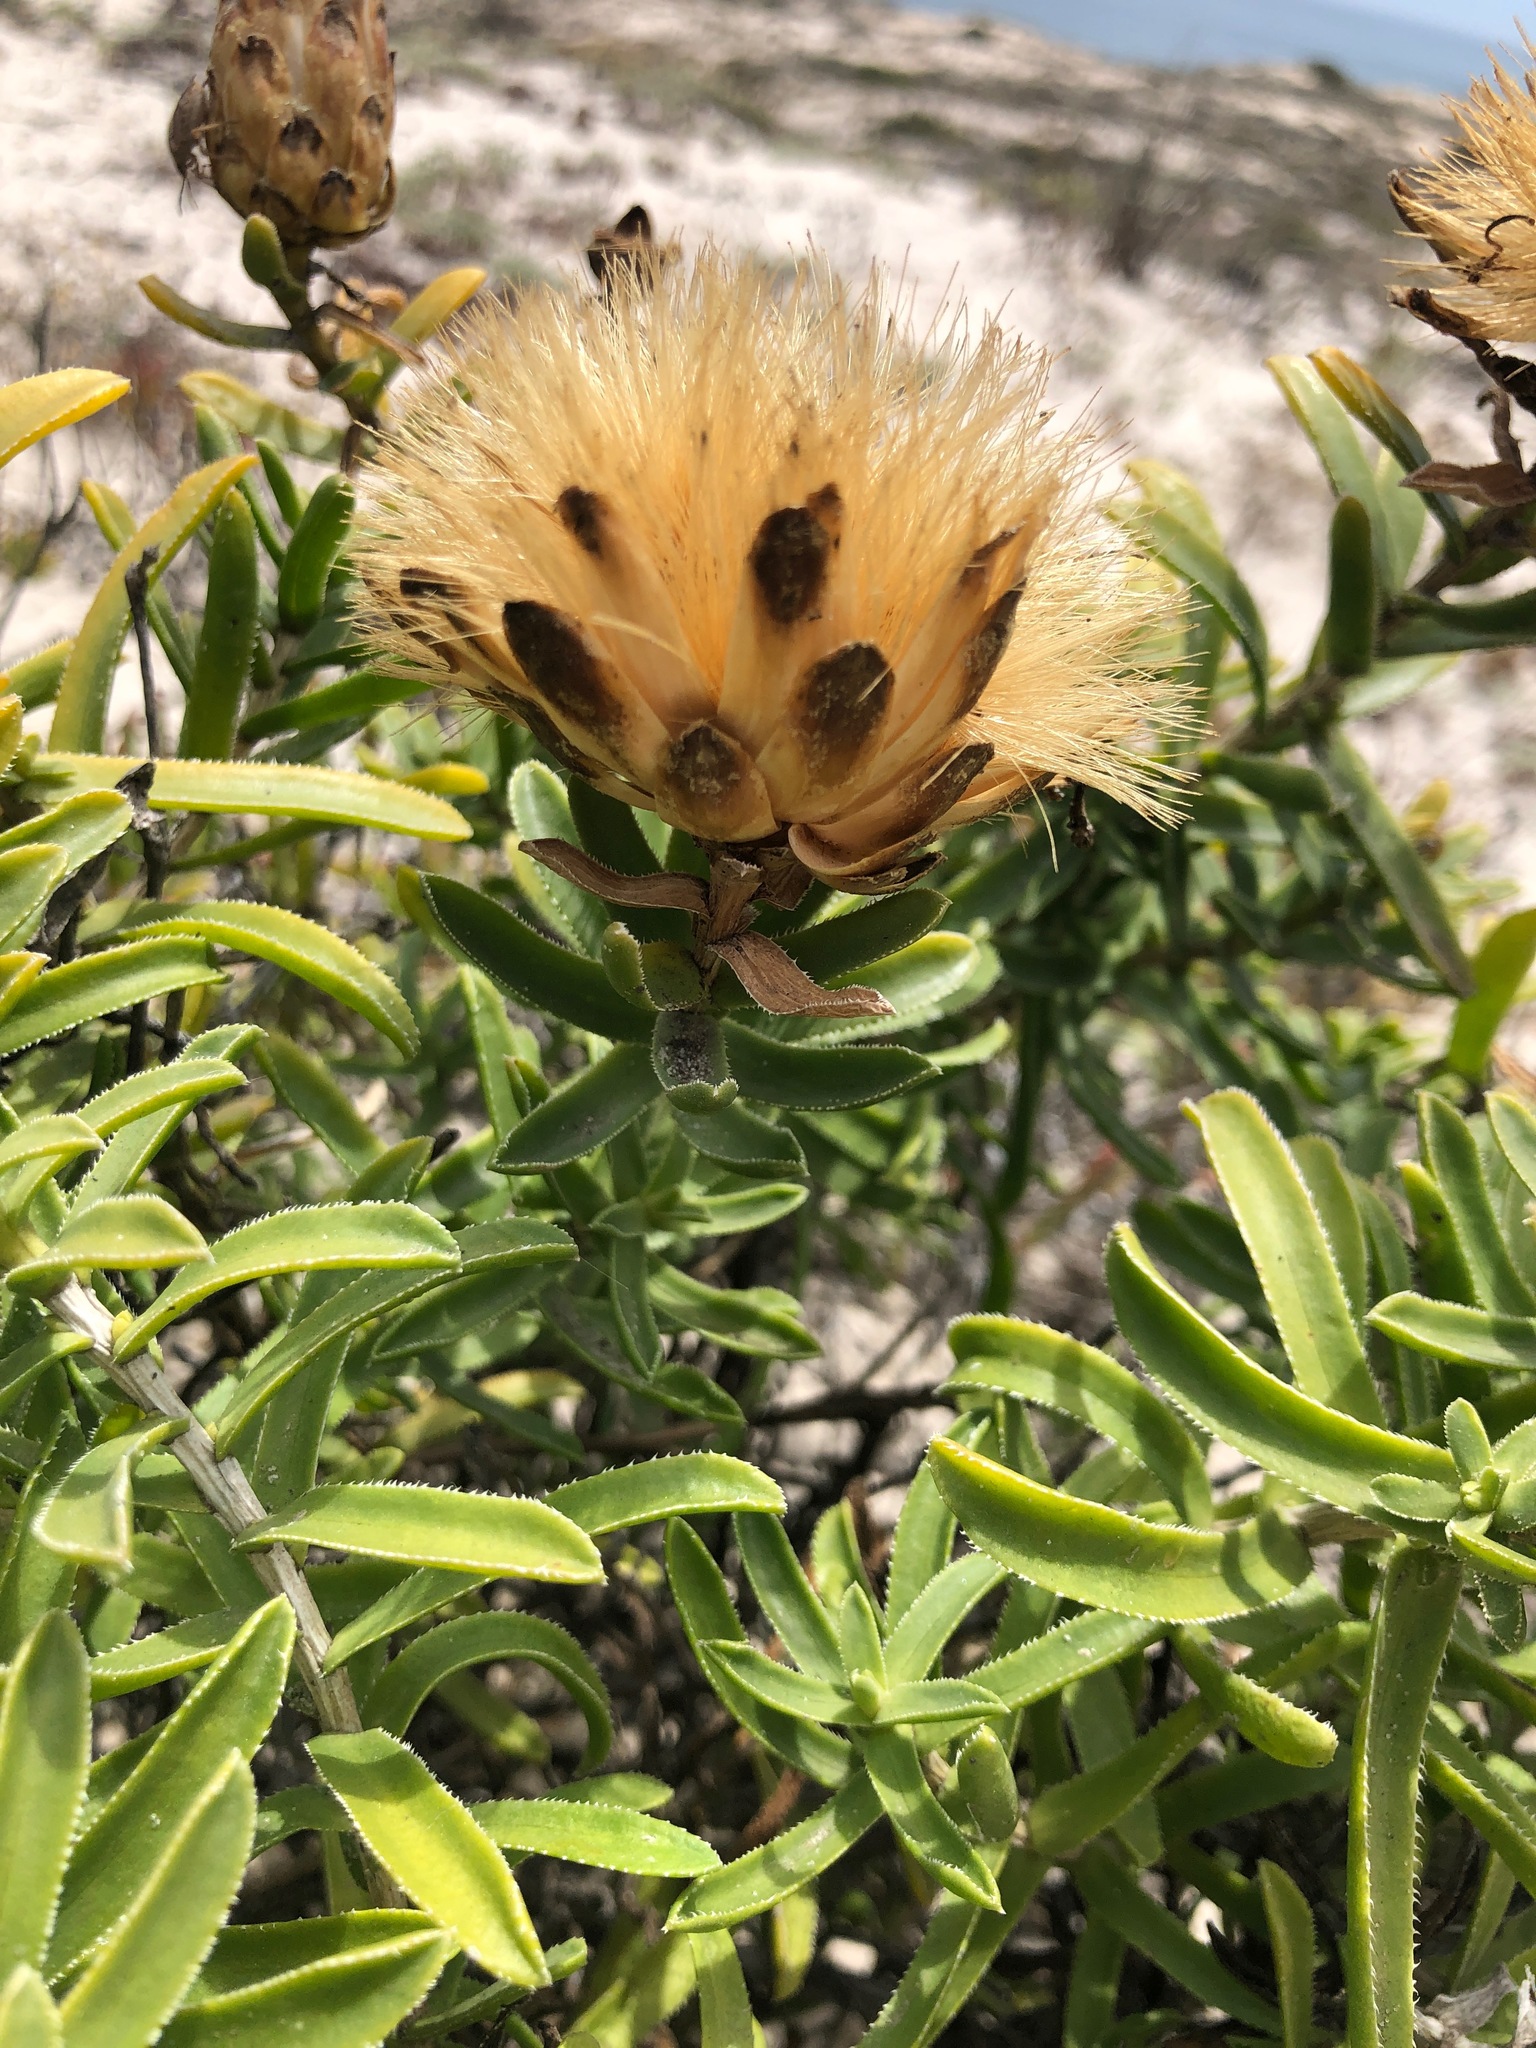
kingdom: Plantae
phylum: Tracheophyta
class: Magnoliopsida
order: Asterales
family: Asteraceae
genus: Pteronia
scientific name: Pteronia onobromoides
